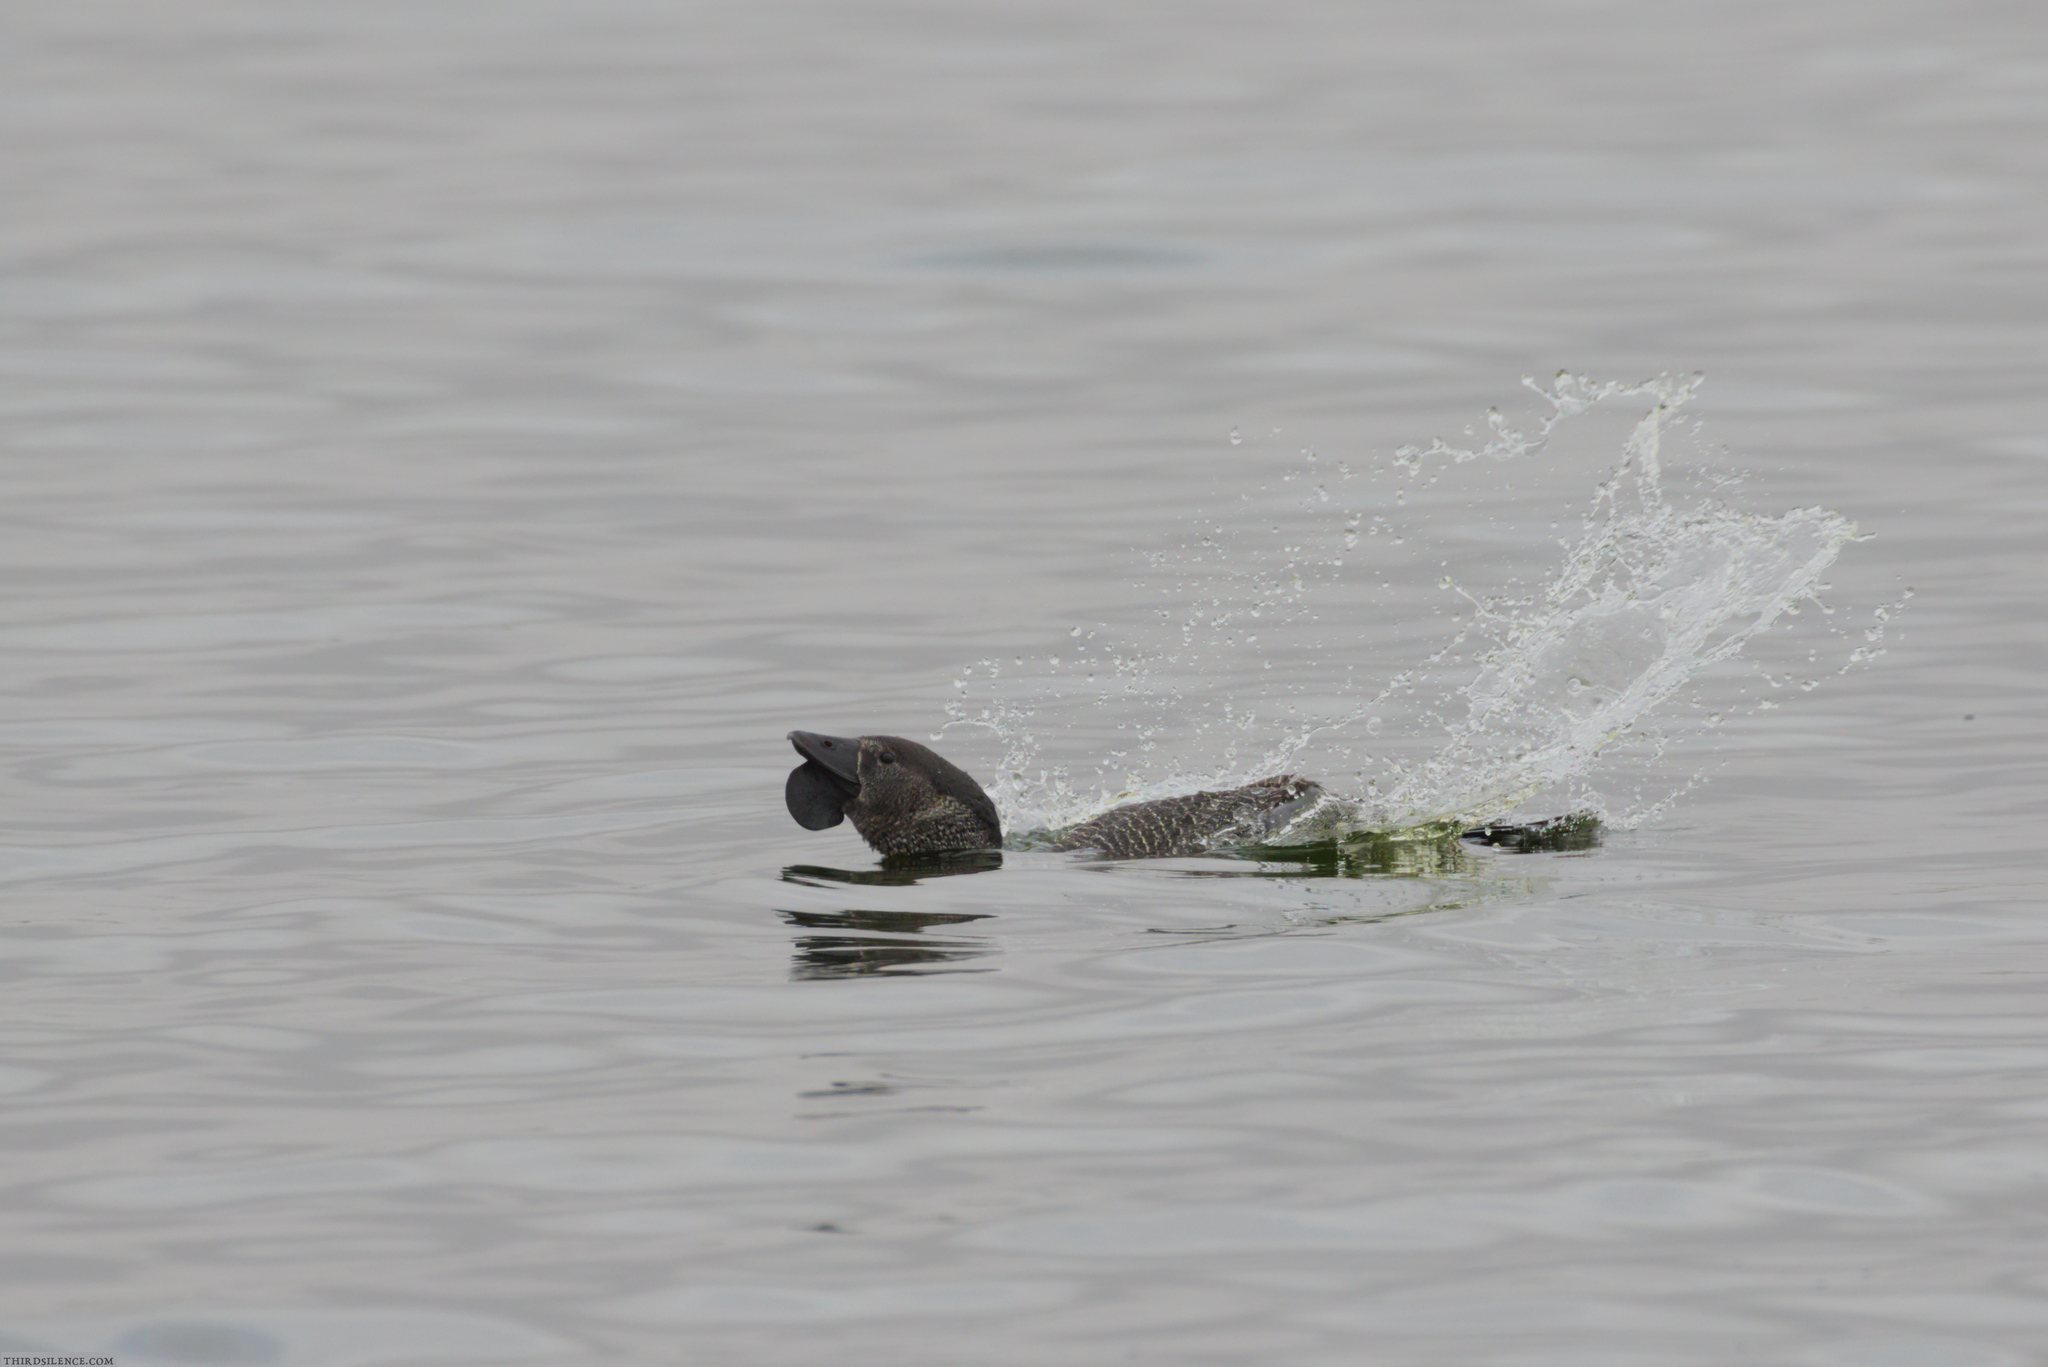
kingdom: Animalia
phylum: Chordata
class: Aves
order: Anseriformes
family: Anatidae
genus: Biziura
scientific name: Biziura lobata
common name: Musk duck
